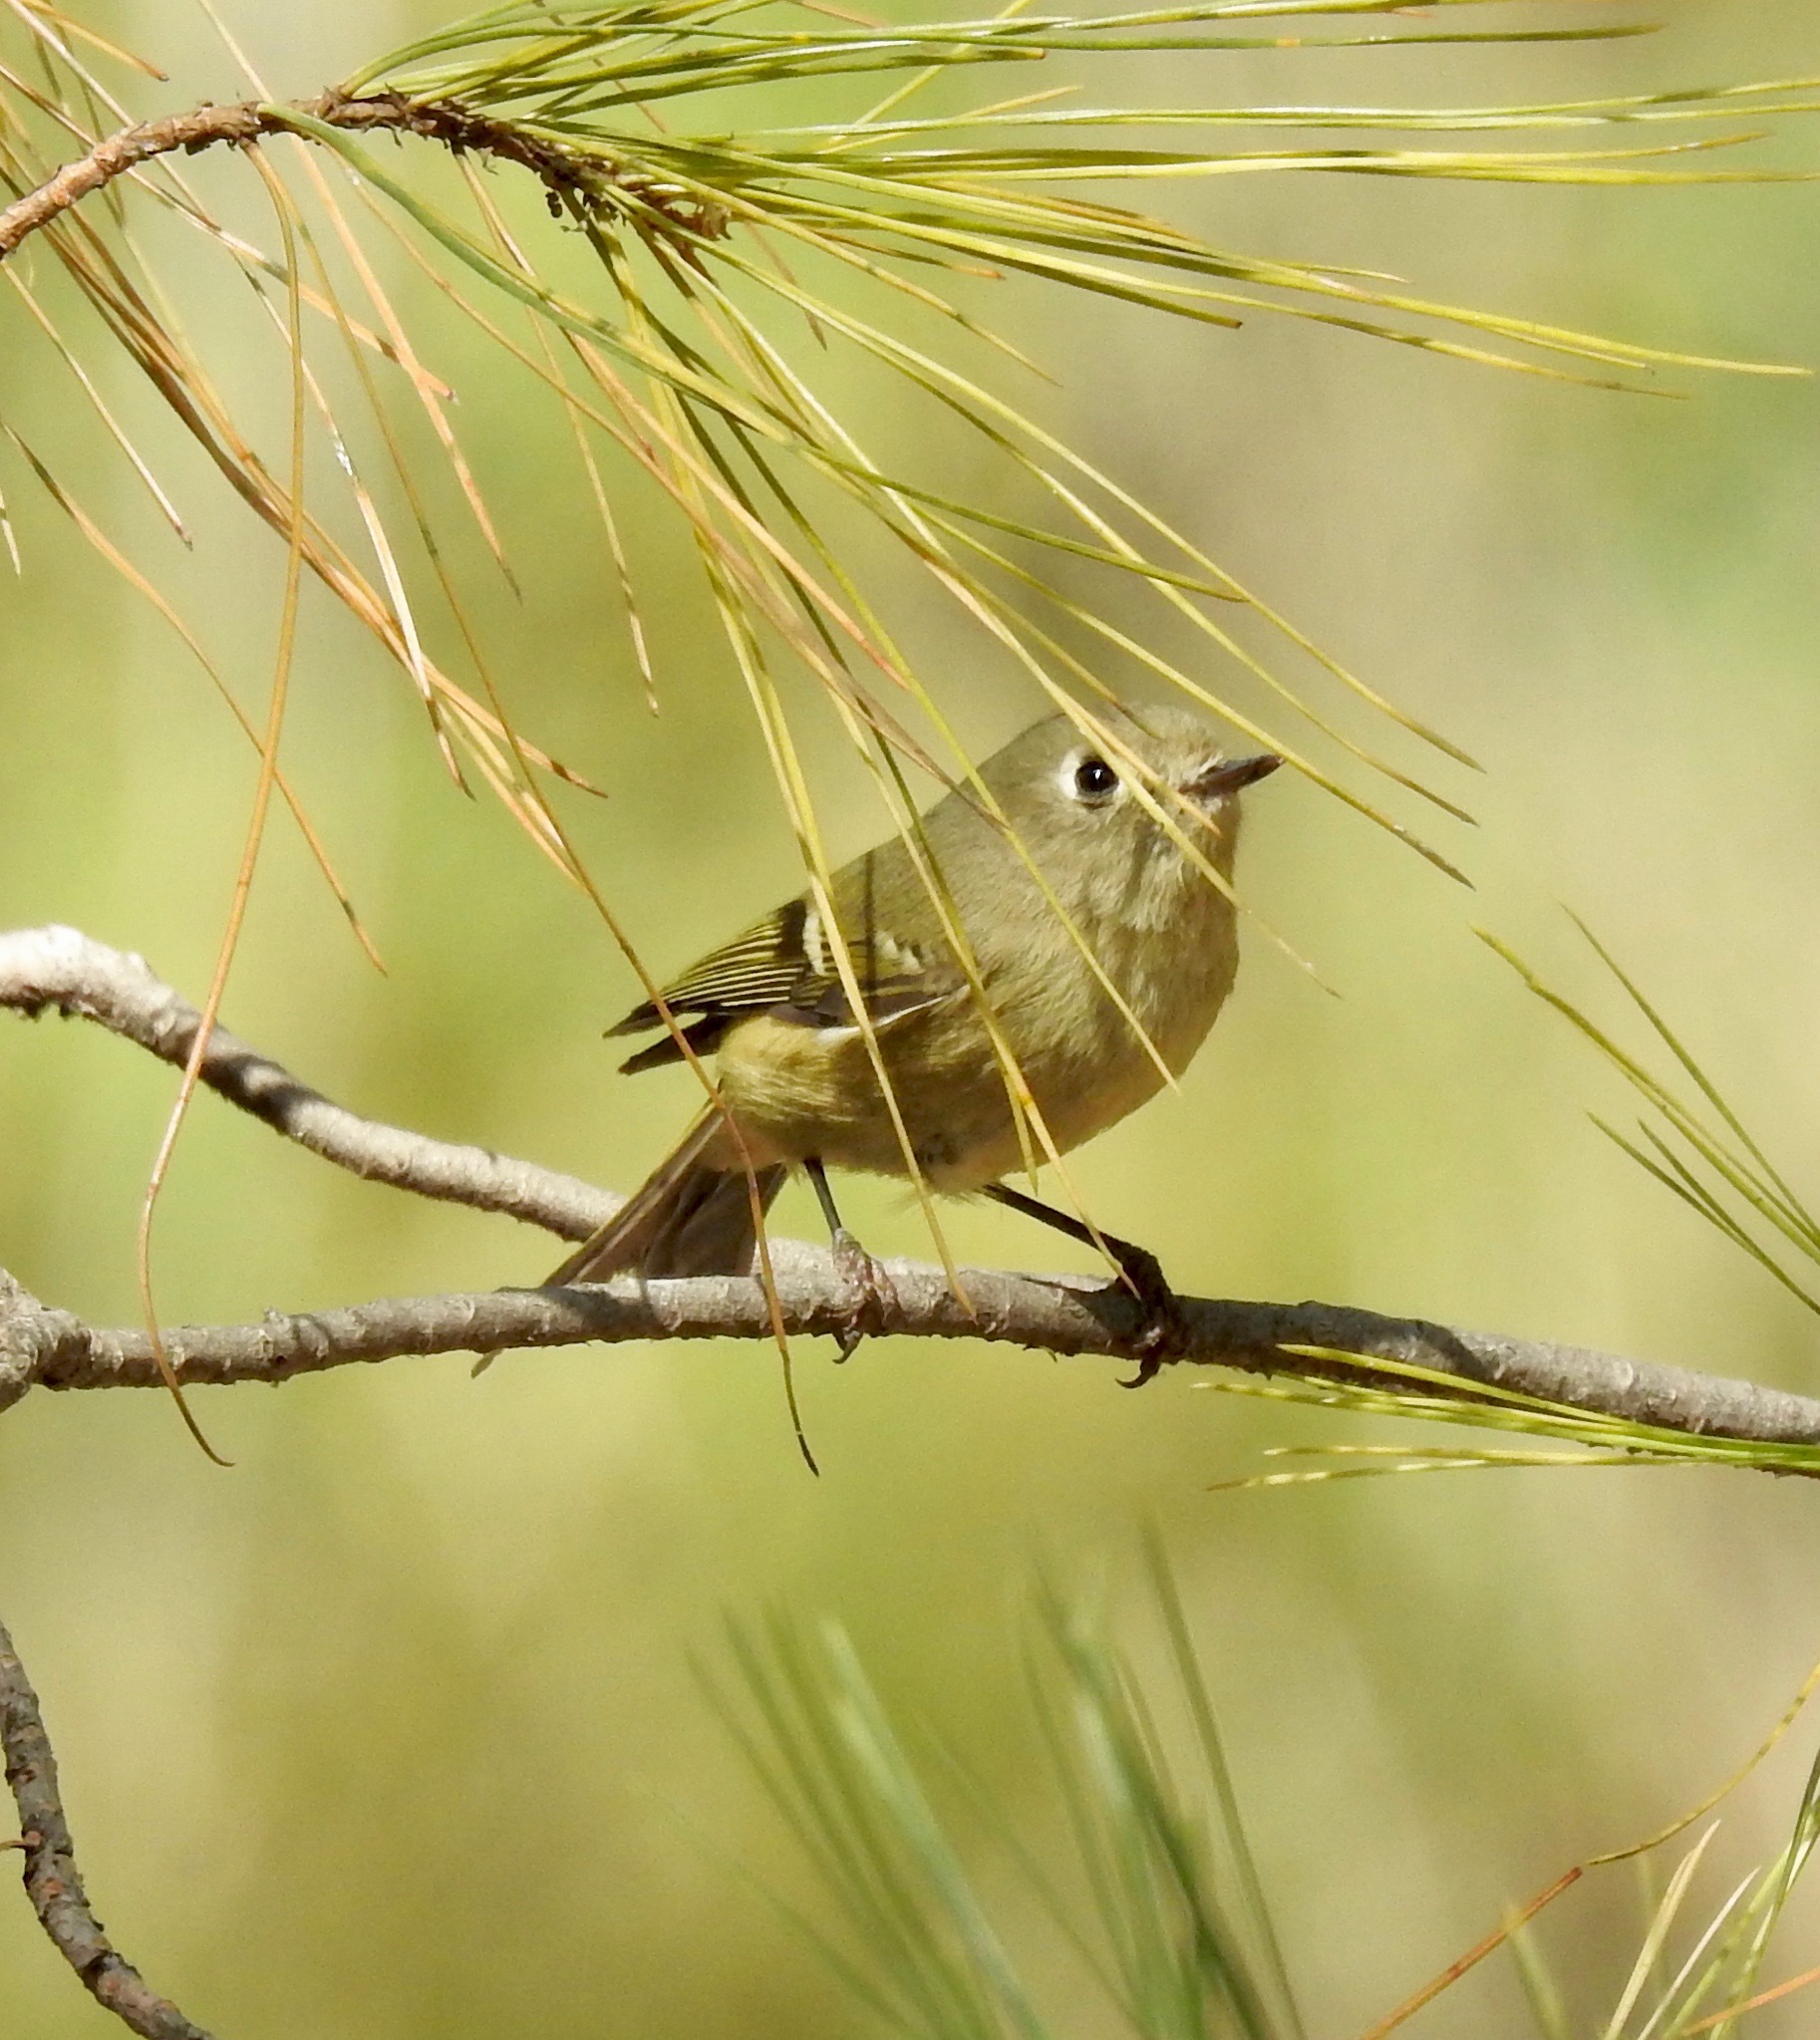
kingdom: Animalia
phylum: Chordata
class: Aves
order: Passeriformes
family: Regulidae
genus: Regulus
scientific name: Regulus calendula
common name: Ruby-crowned kinglet
